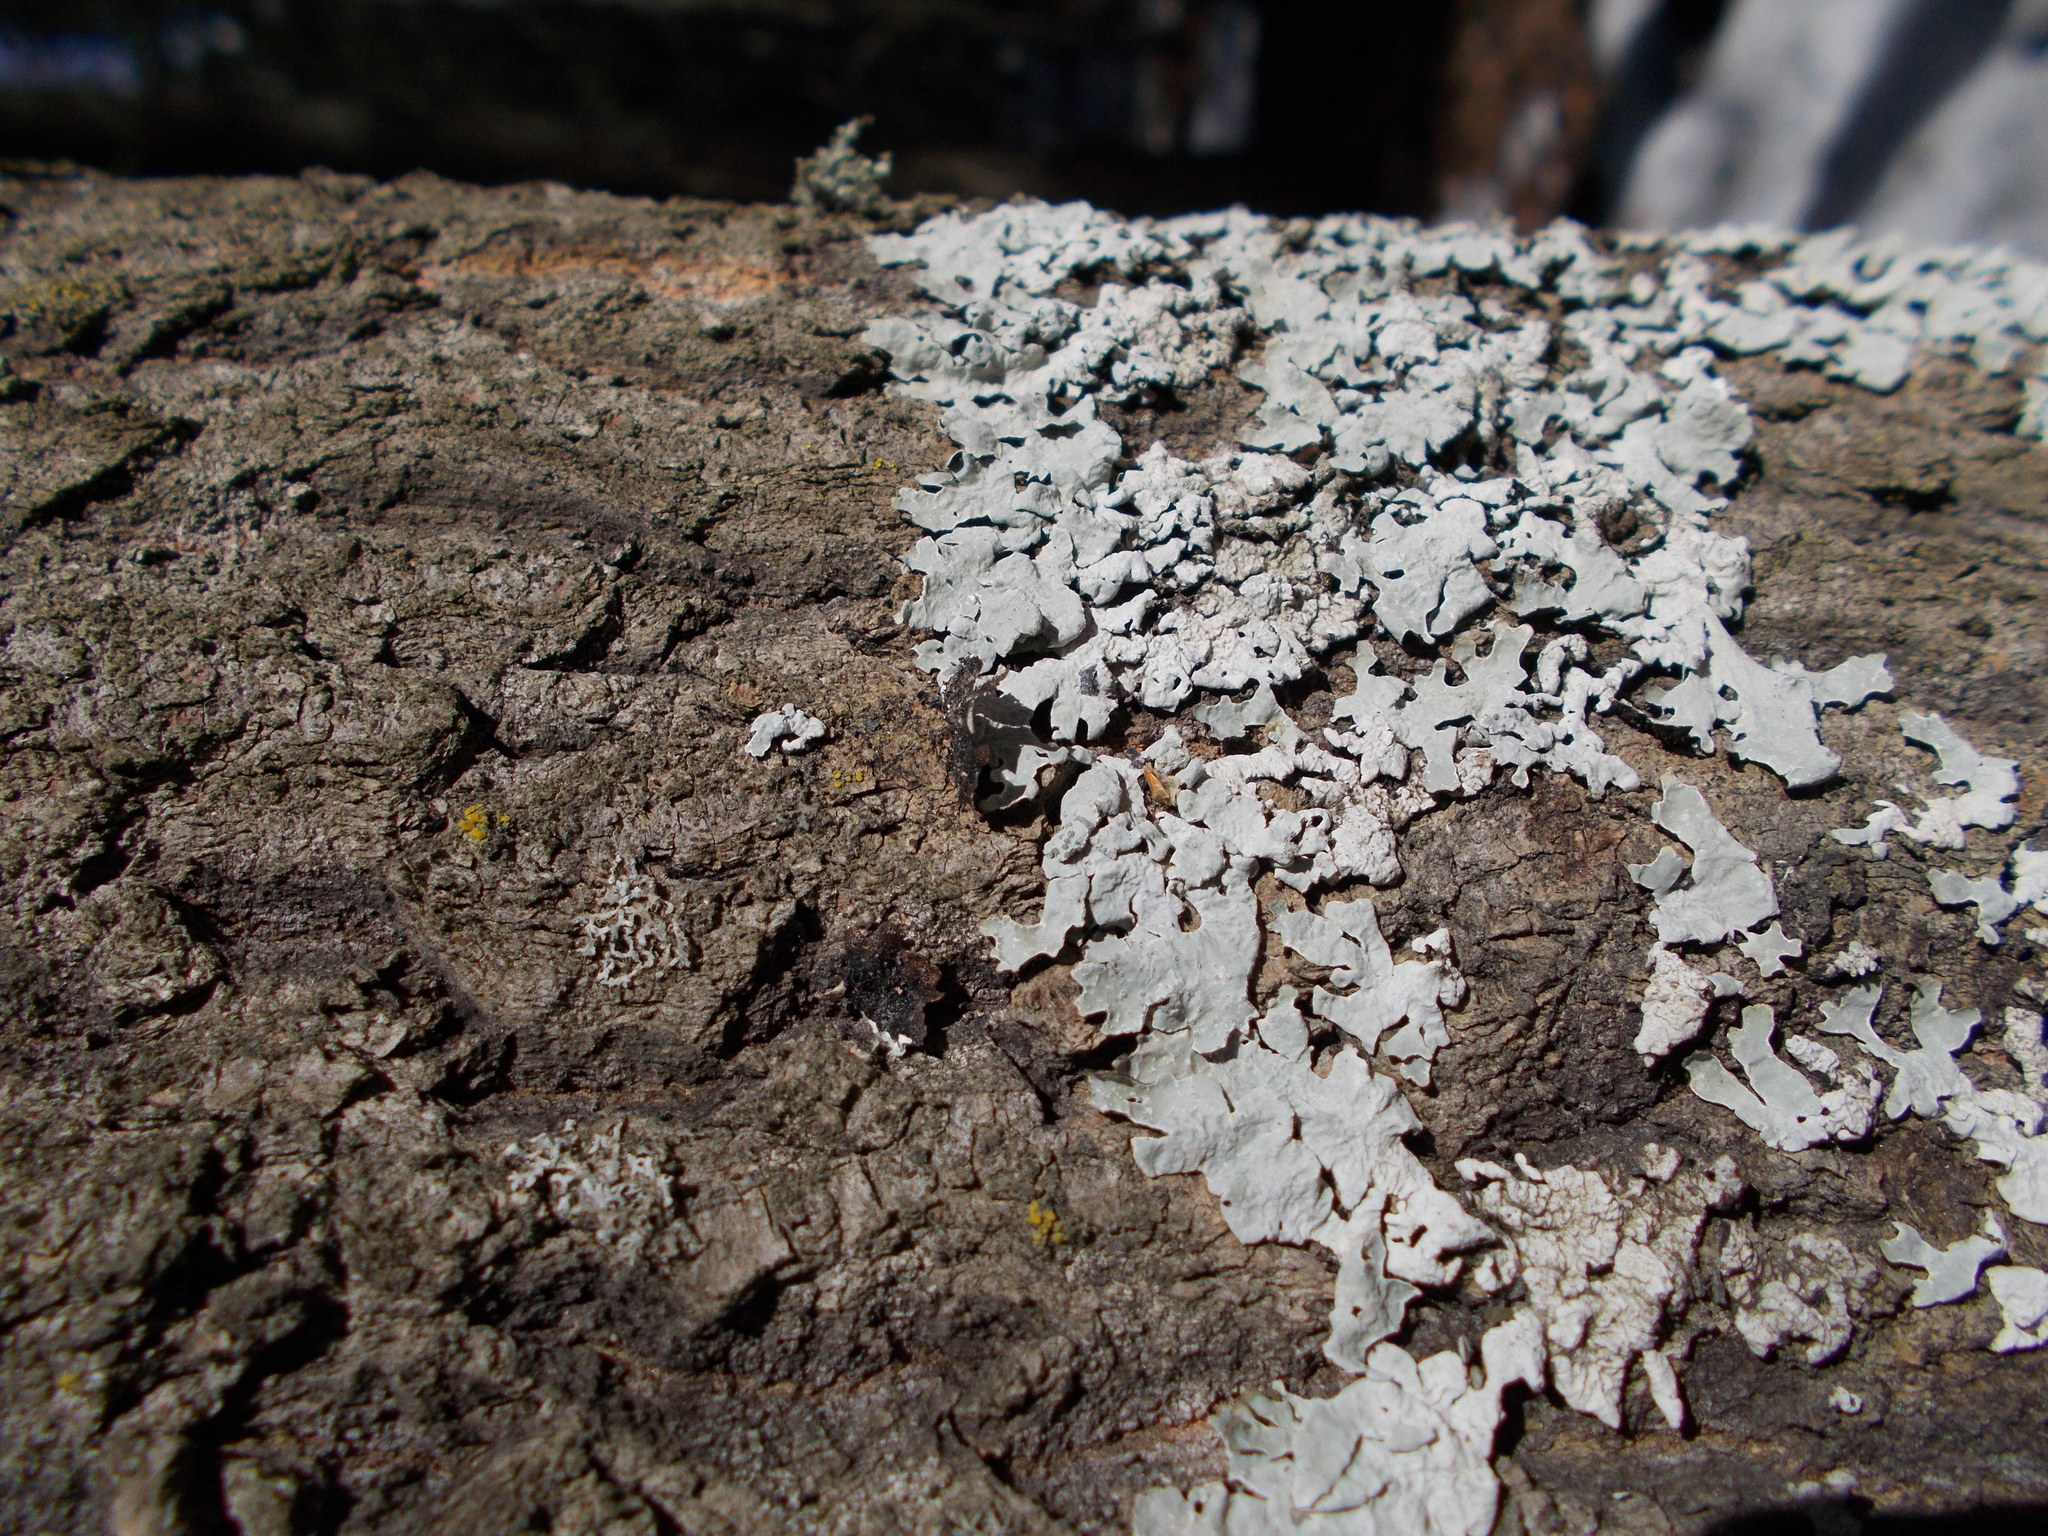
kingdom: Fungi
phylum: Ascomycota
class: Lecanoromycetes
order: Lecanorales
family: Parmeliaceae
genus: Parmelia
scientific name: Parmelia sulcata
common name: Netted shield lichen
